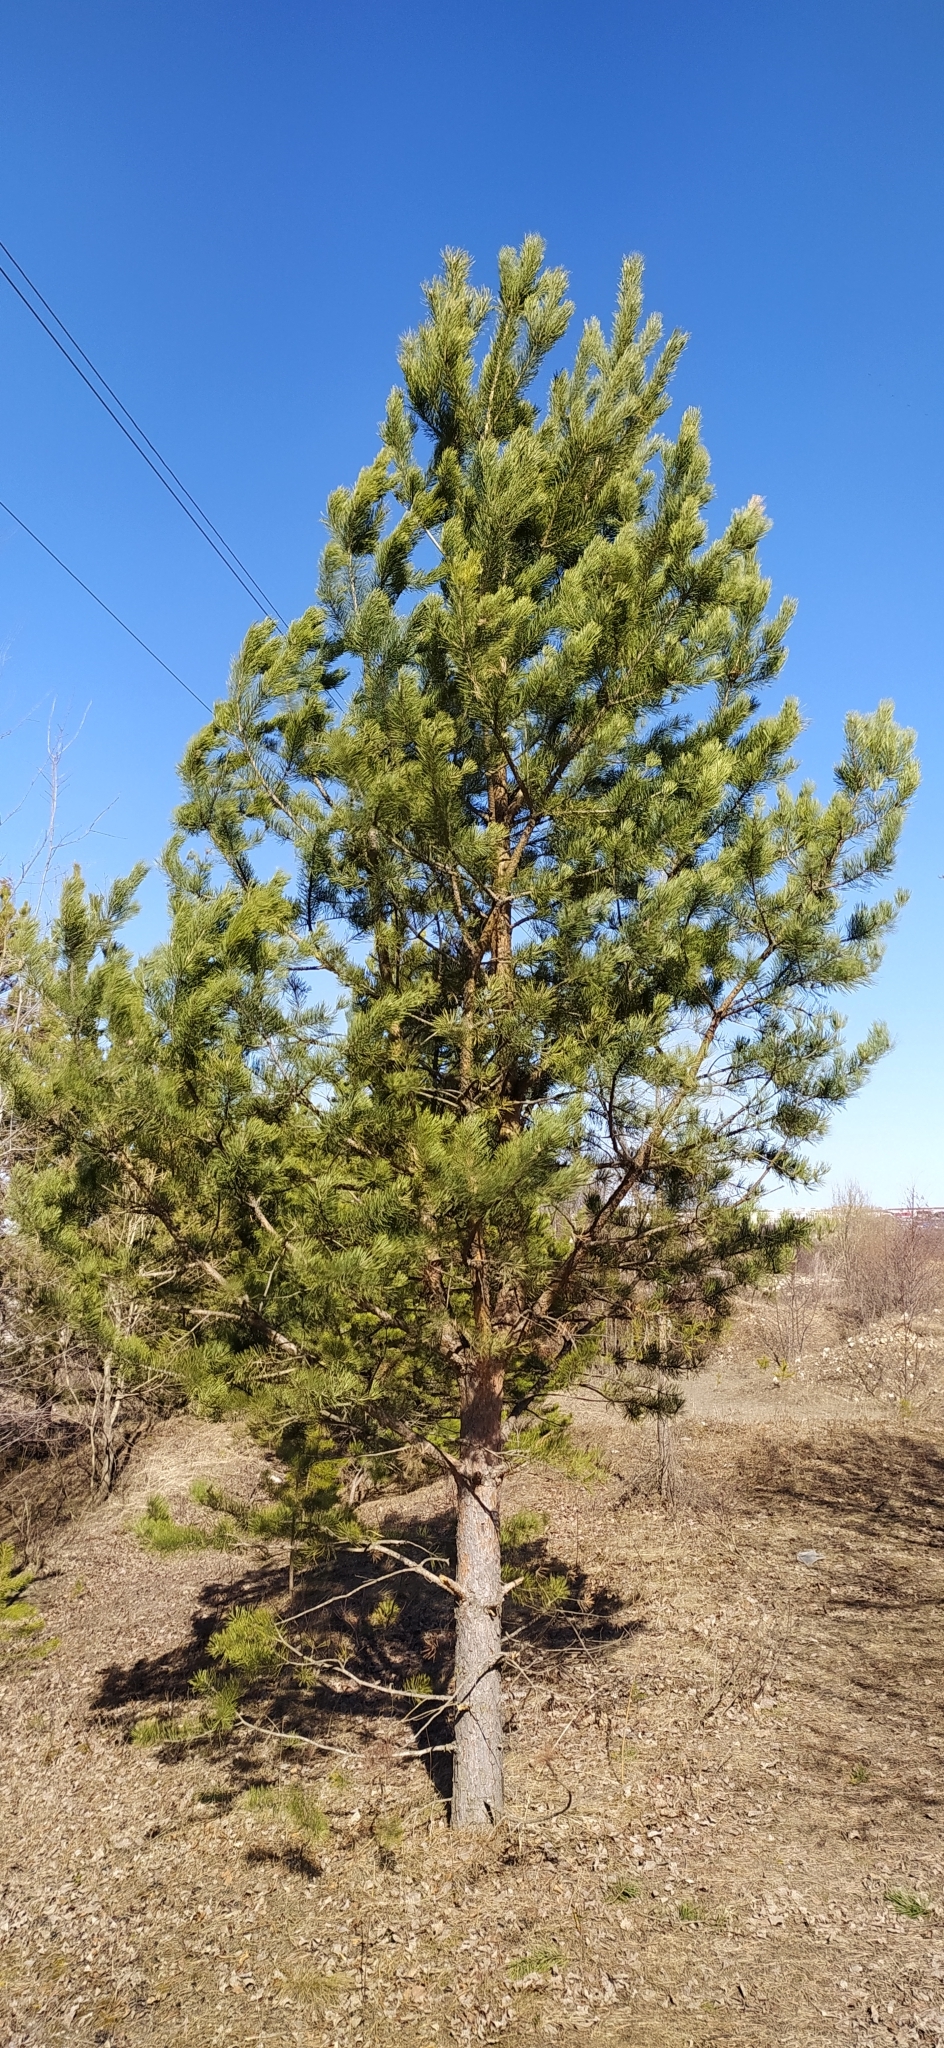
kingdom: Plantae
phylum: Tracheophyta
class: Pinopsida
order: Pinales
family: Pinaceae
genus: Pinus
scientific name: Pinus sylvestris
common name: Scots pine
